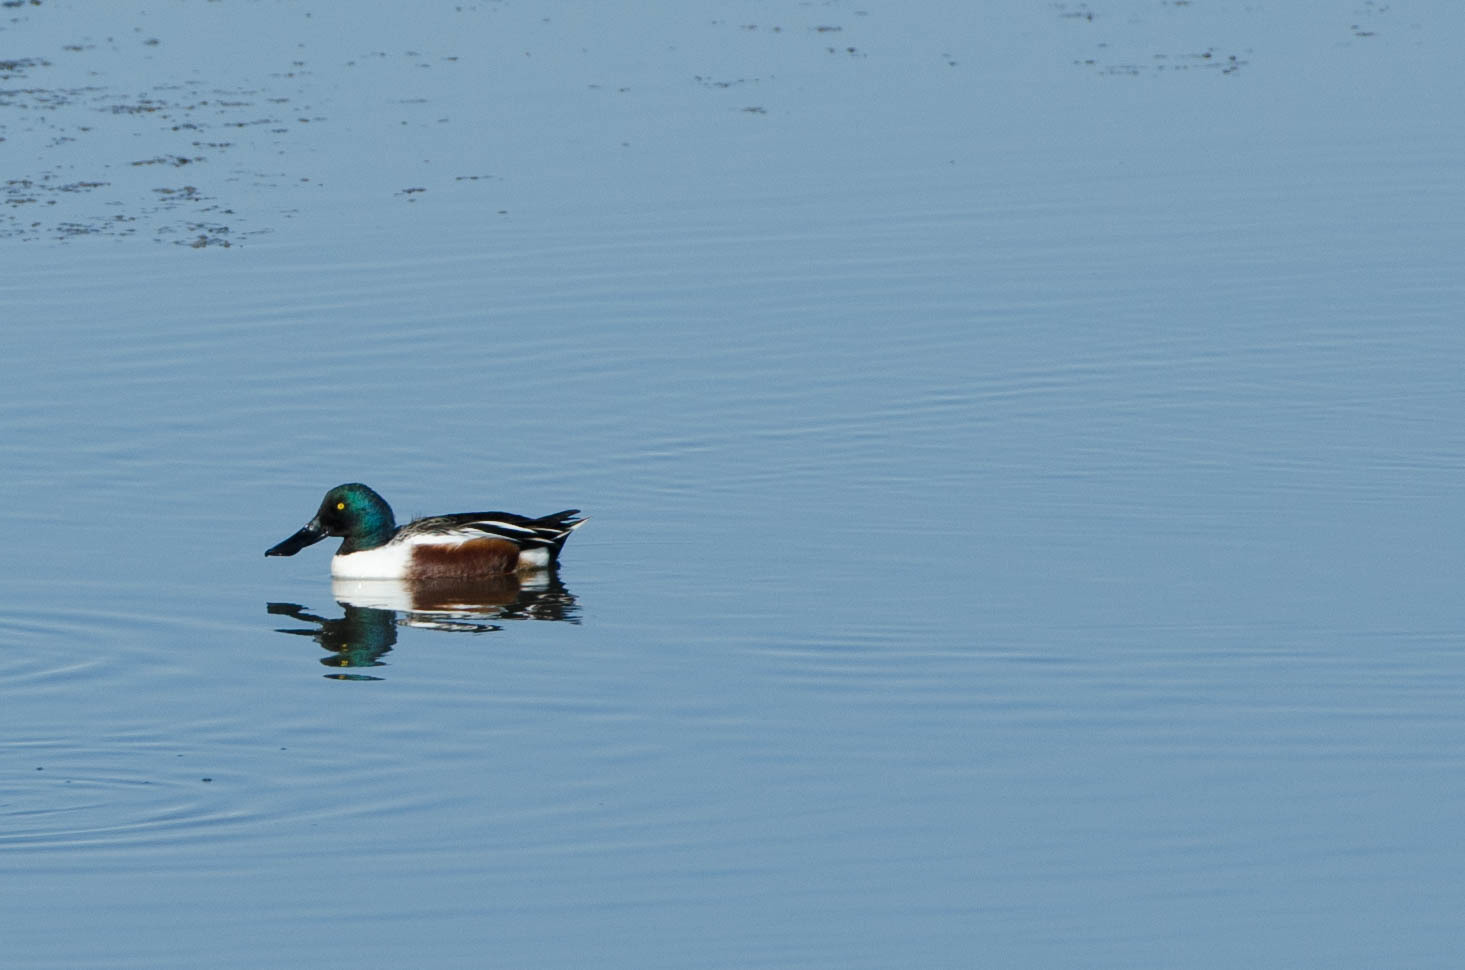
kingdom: Animalia
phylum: Chordata
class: Aves
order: Anseriformes
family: Anatidae
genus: Spatula
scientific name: Spatula clypeata
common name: Northern shoveler
